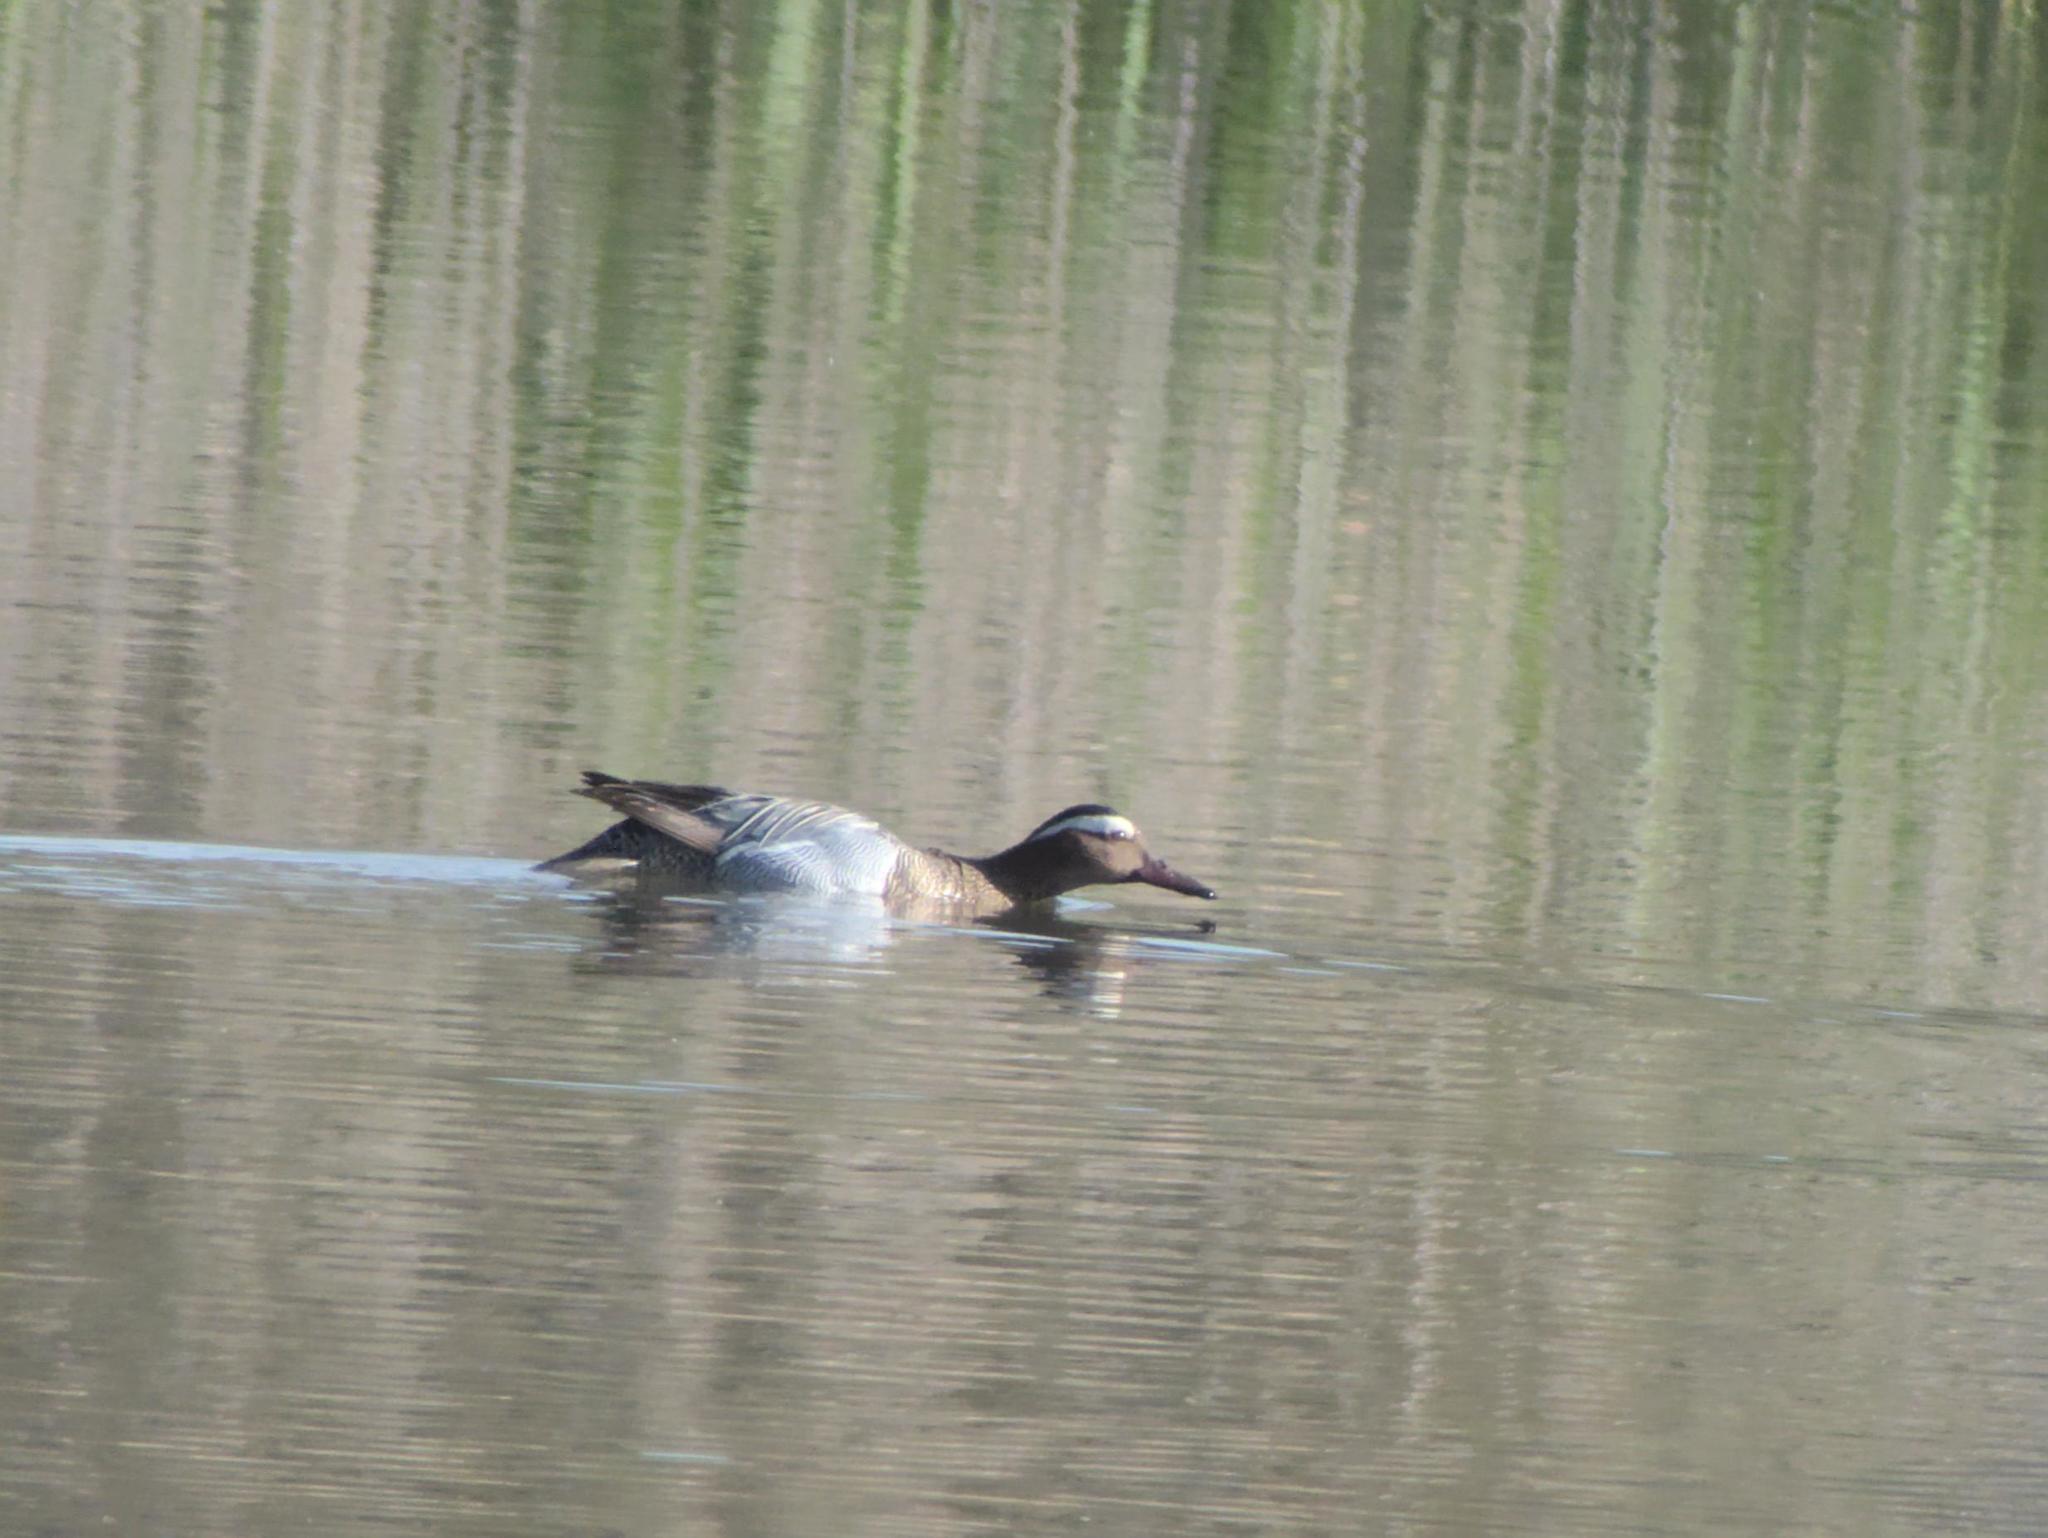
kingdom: Animalia
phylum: Chordata
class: Aves
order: Anseriformes
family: Anatidae
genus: Spatula
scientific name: Spatula querquedula
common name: Garganey
